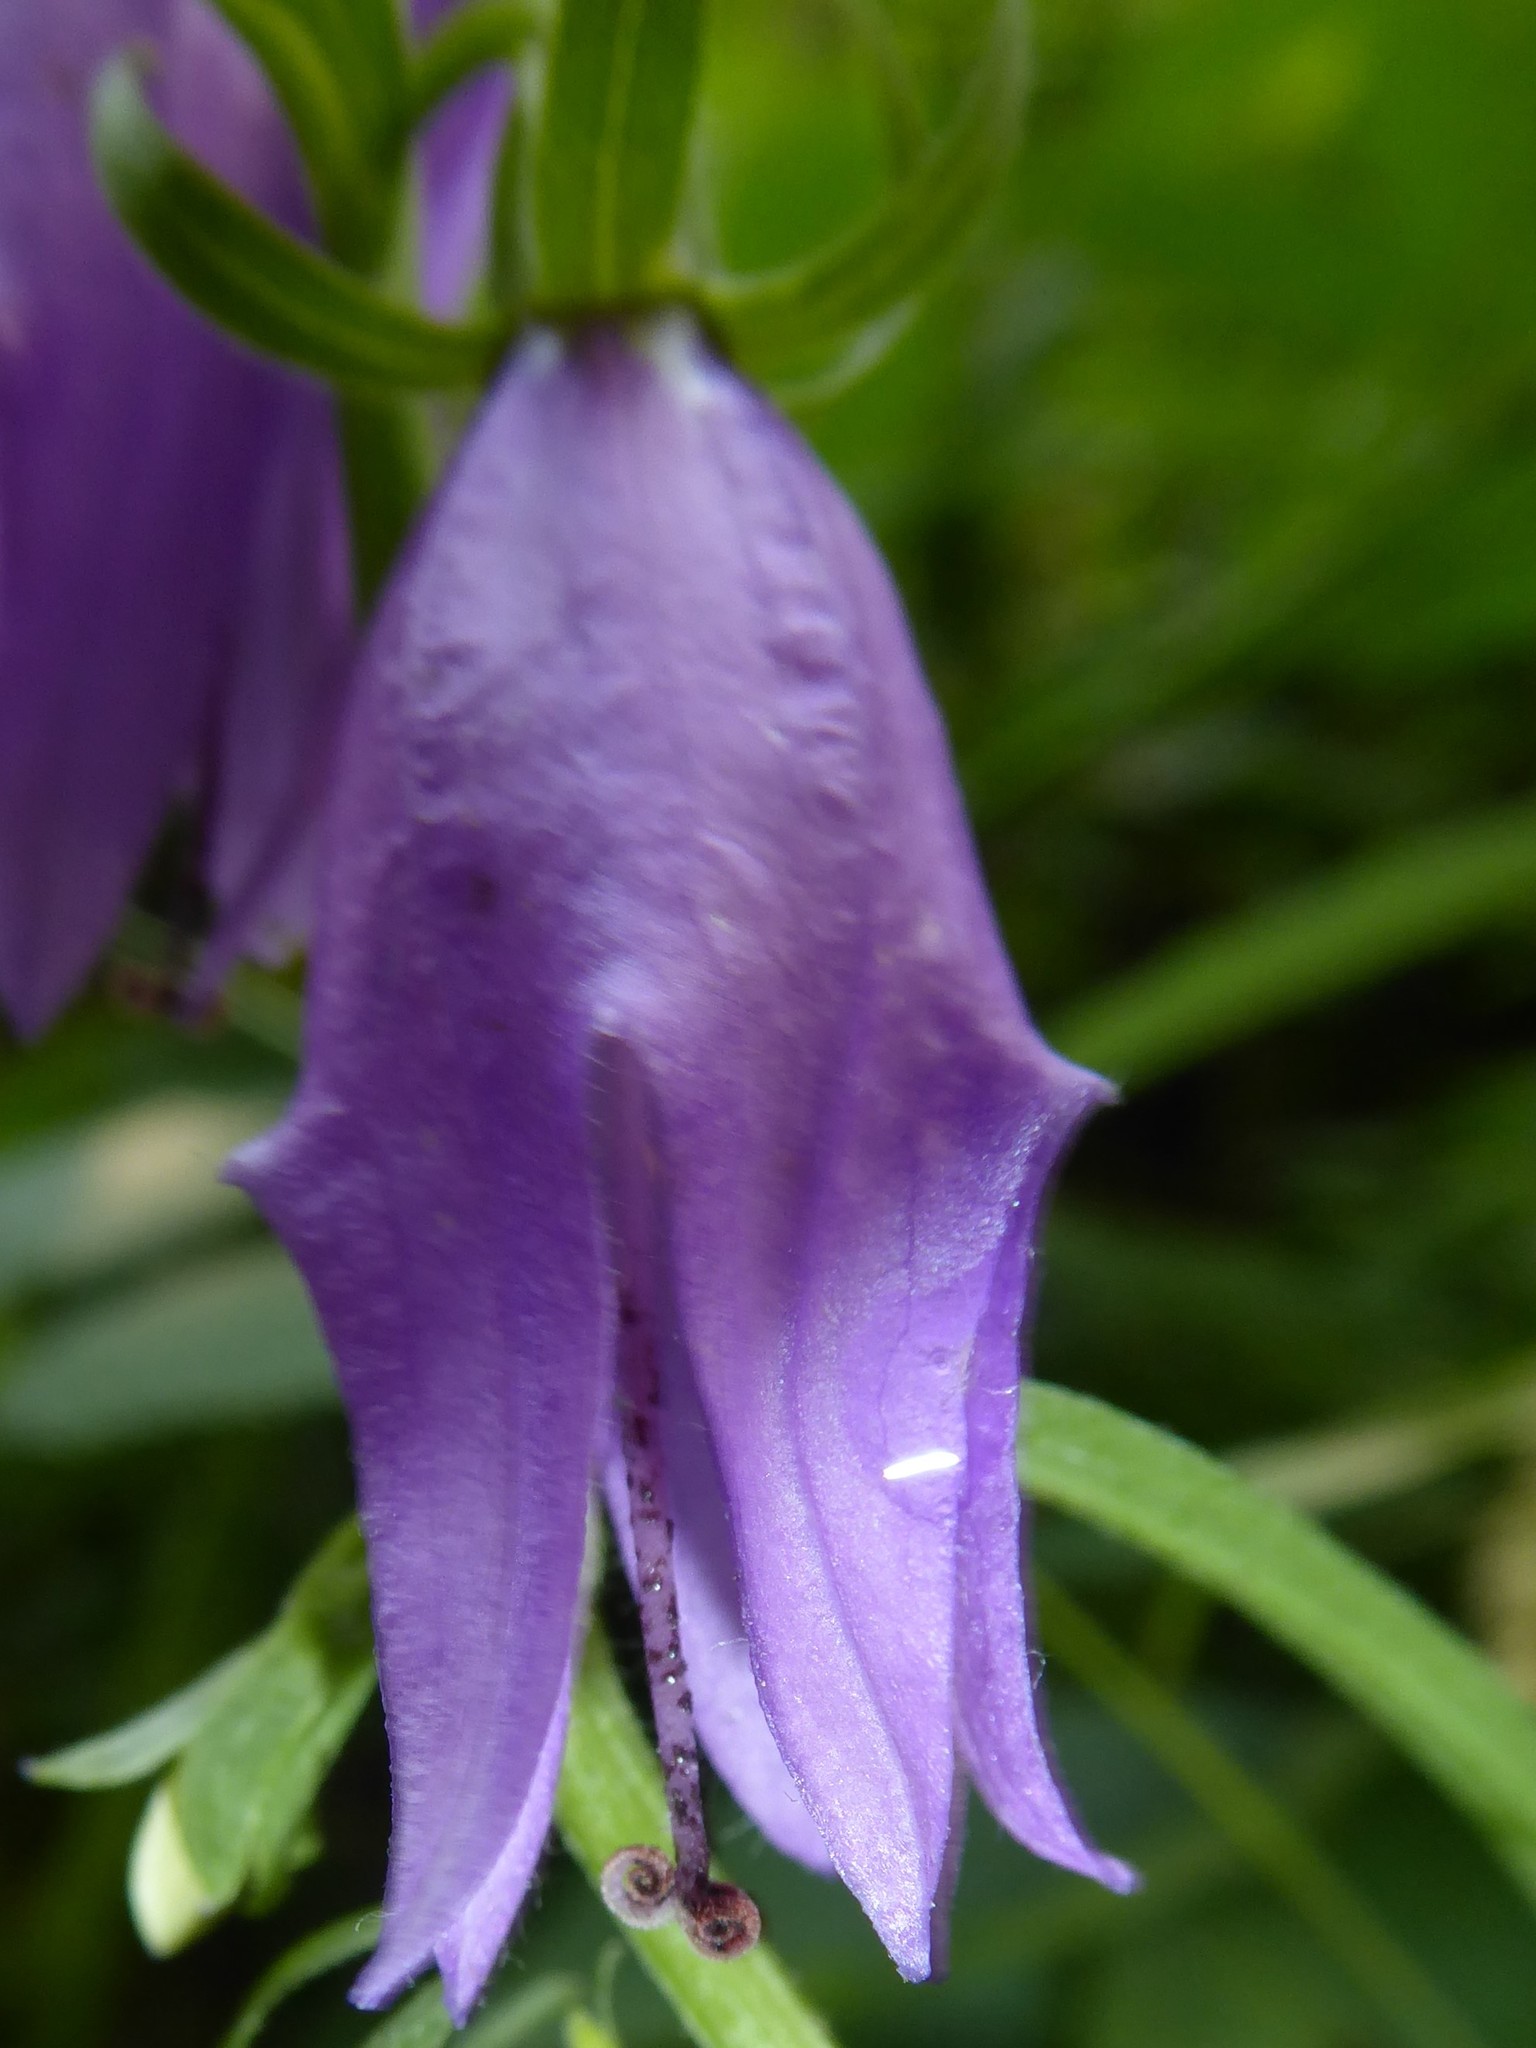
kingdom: Plantae
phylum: Tracheophyta
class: Magnoliopsida
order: Asterales
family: Campanulaceae
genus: Campanula
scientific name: Campanula rapunculoides
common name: Creeping bellflower
